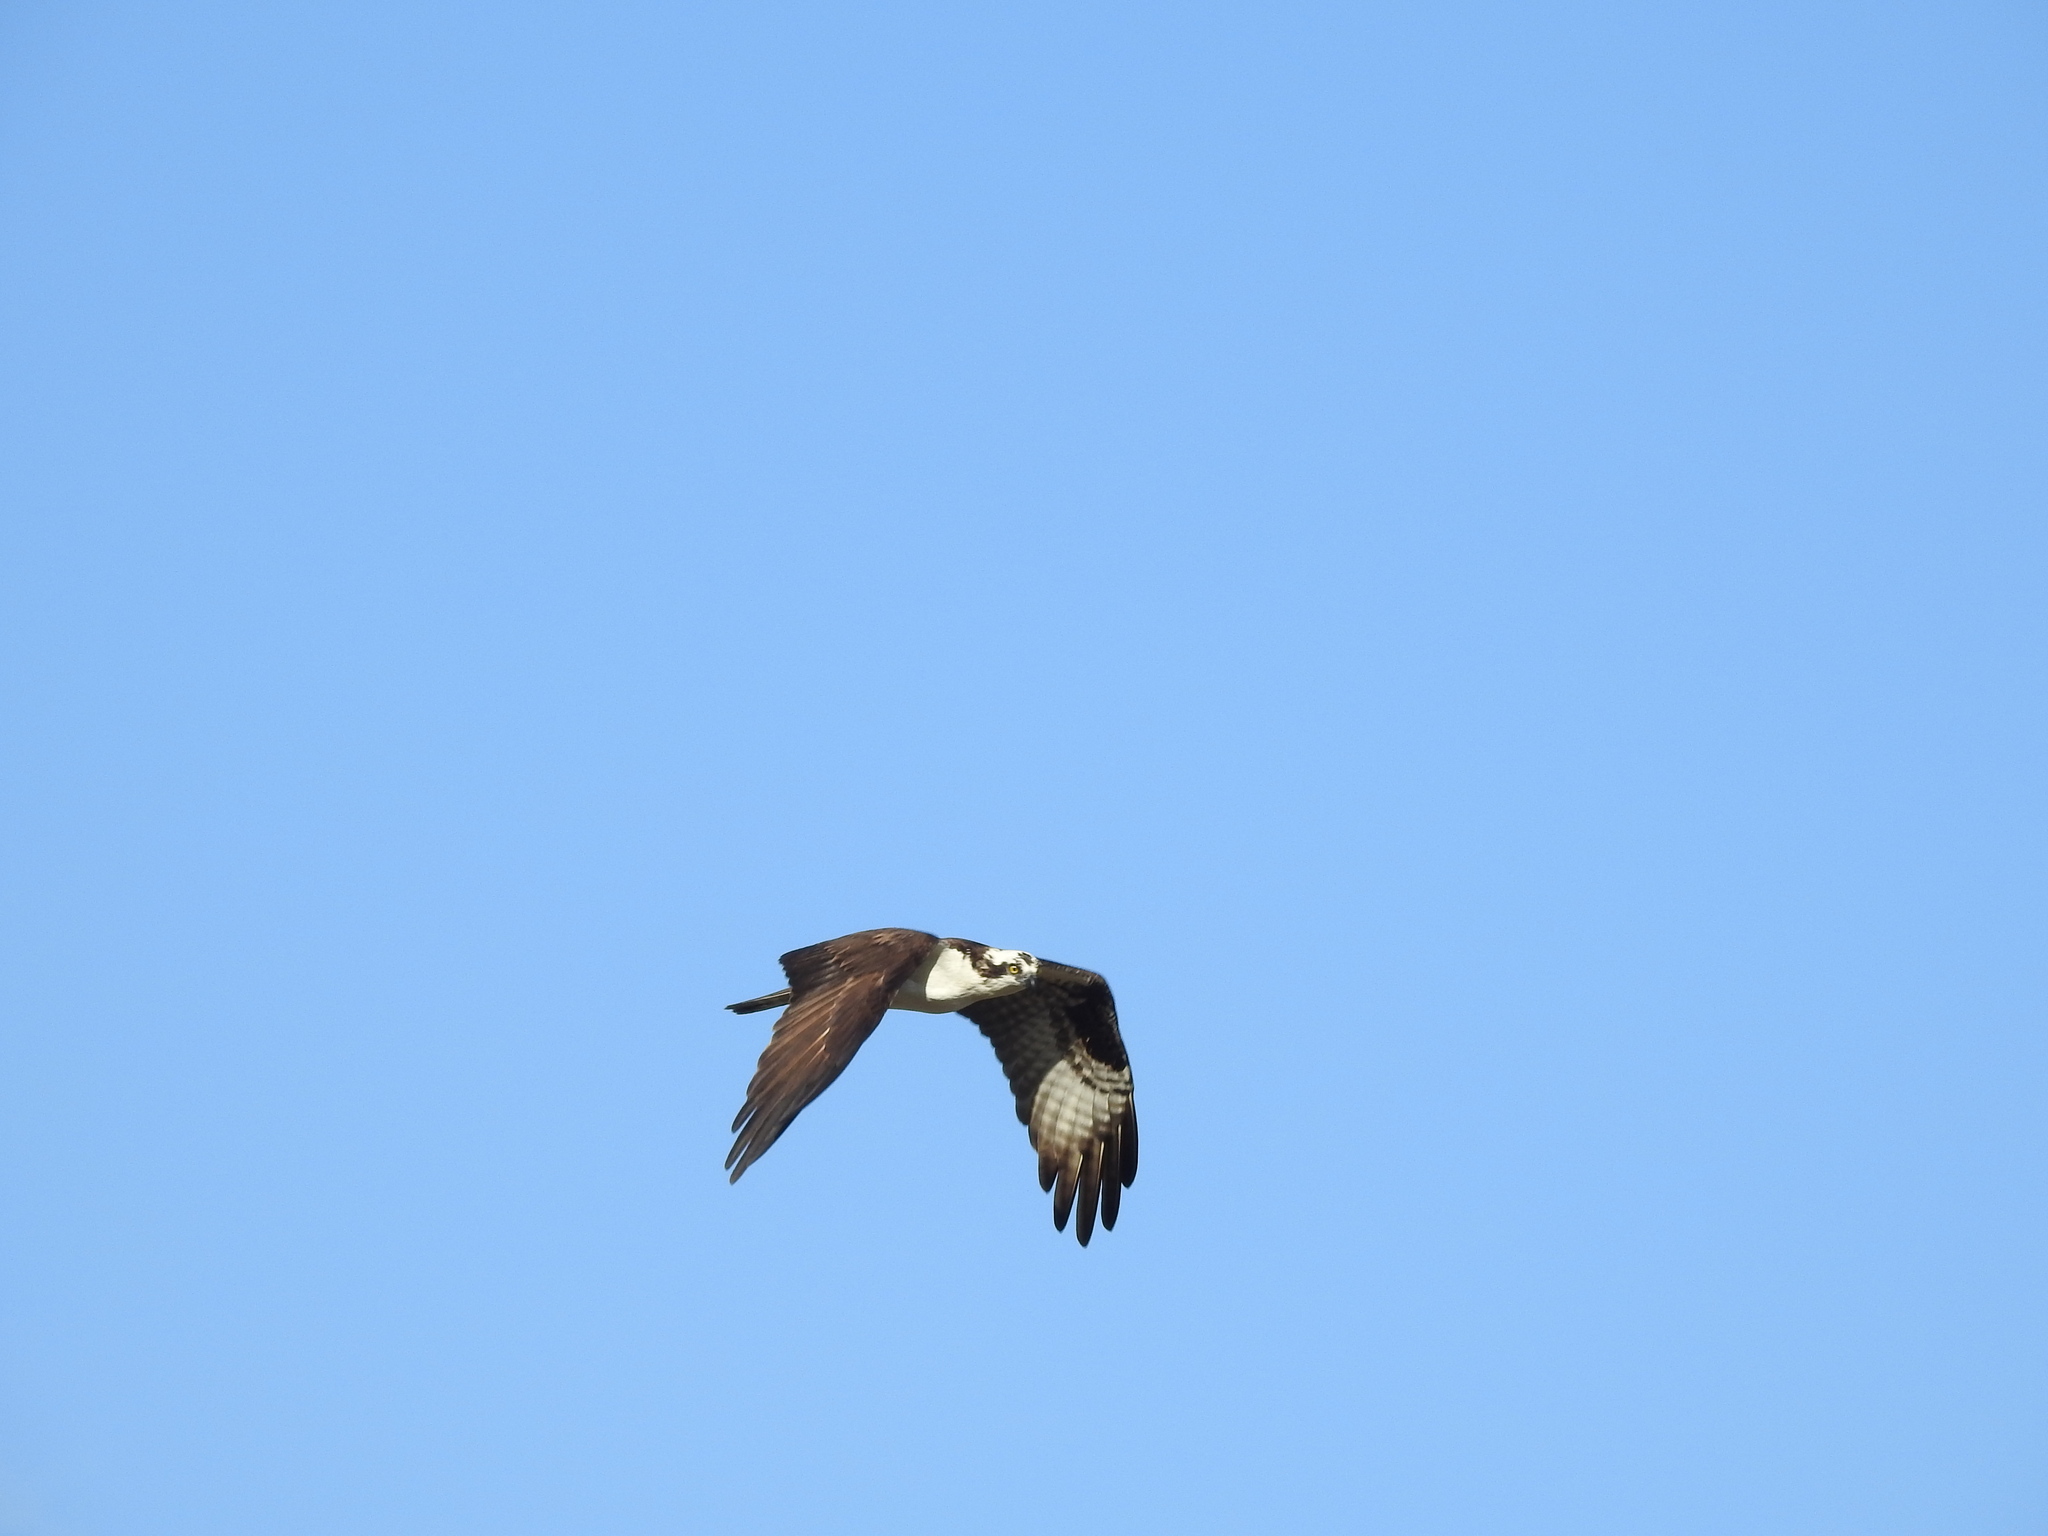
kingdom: Animalia
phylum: Chordata
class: Aves
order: Accipitriformes
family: Pandionidae
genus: Pandion
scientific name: Pandion haliaetus
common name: Osprey
